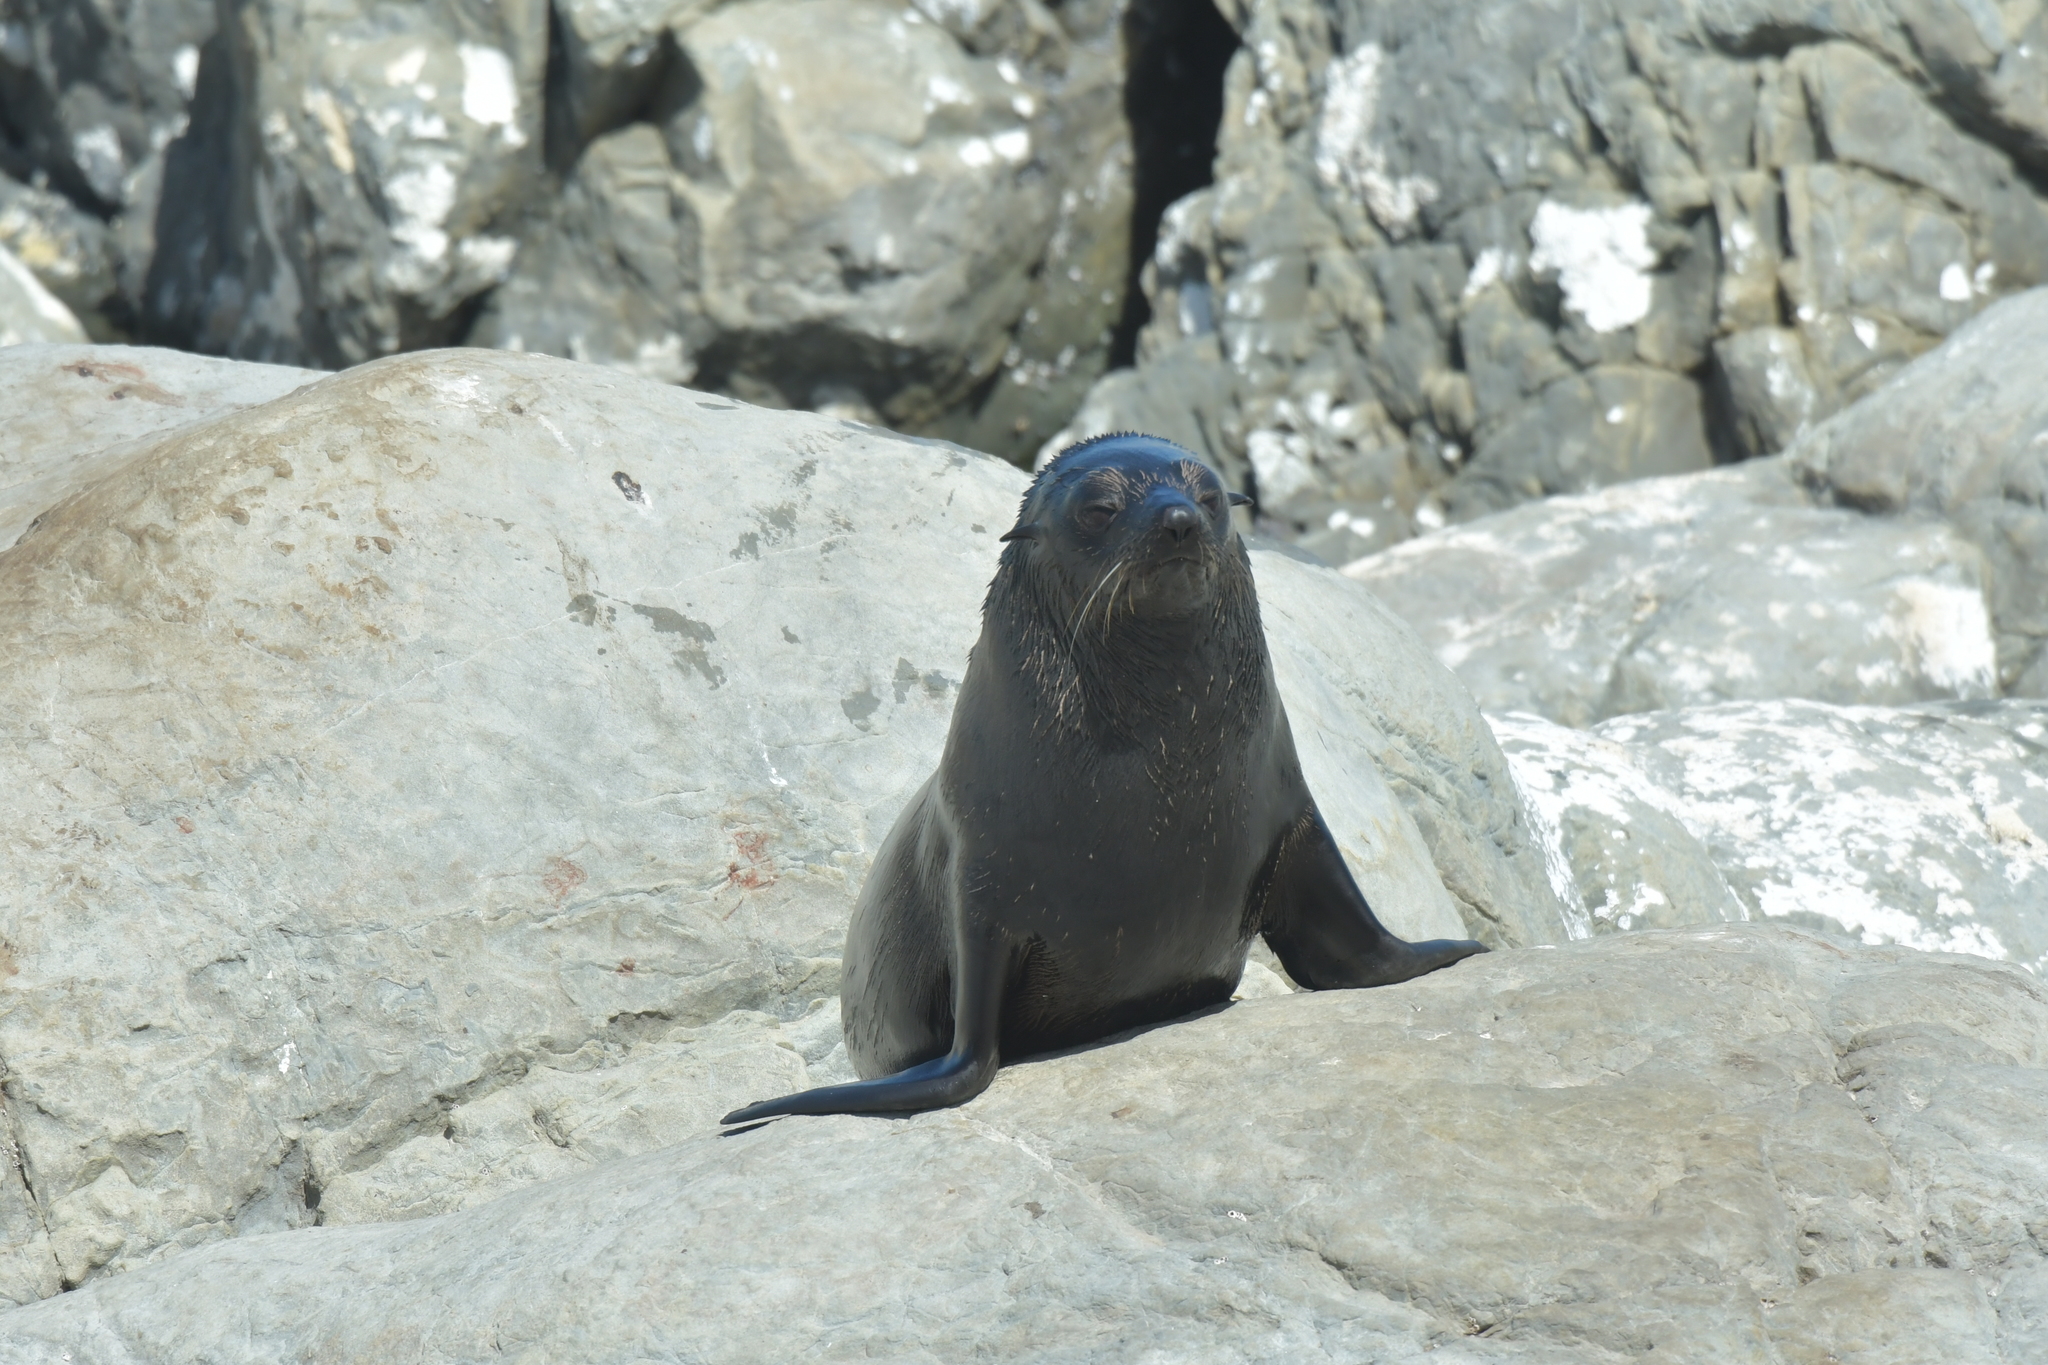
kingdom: Animalia
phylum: Chordata
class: Mammalia
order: Carnivora
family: Otariidae
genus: Arctocephalus
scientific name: Arctocephalus forsteri
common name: New zealand fur seal
